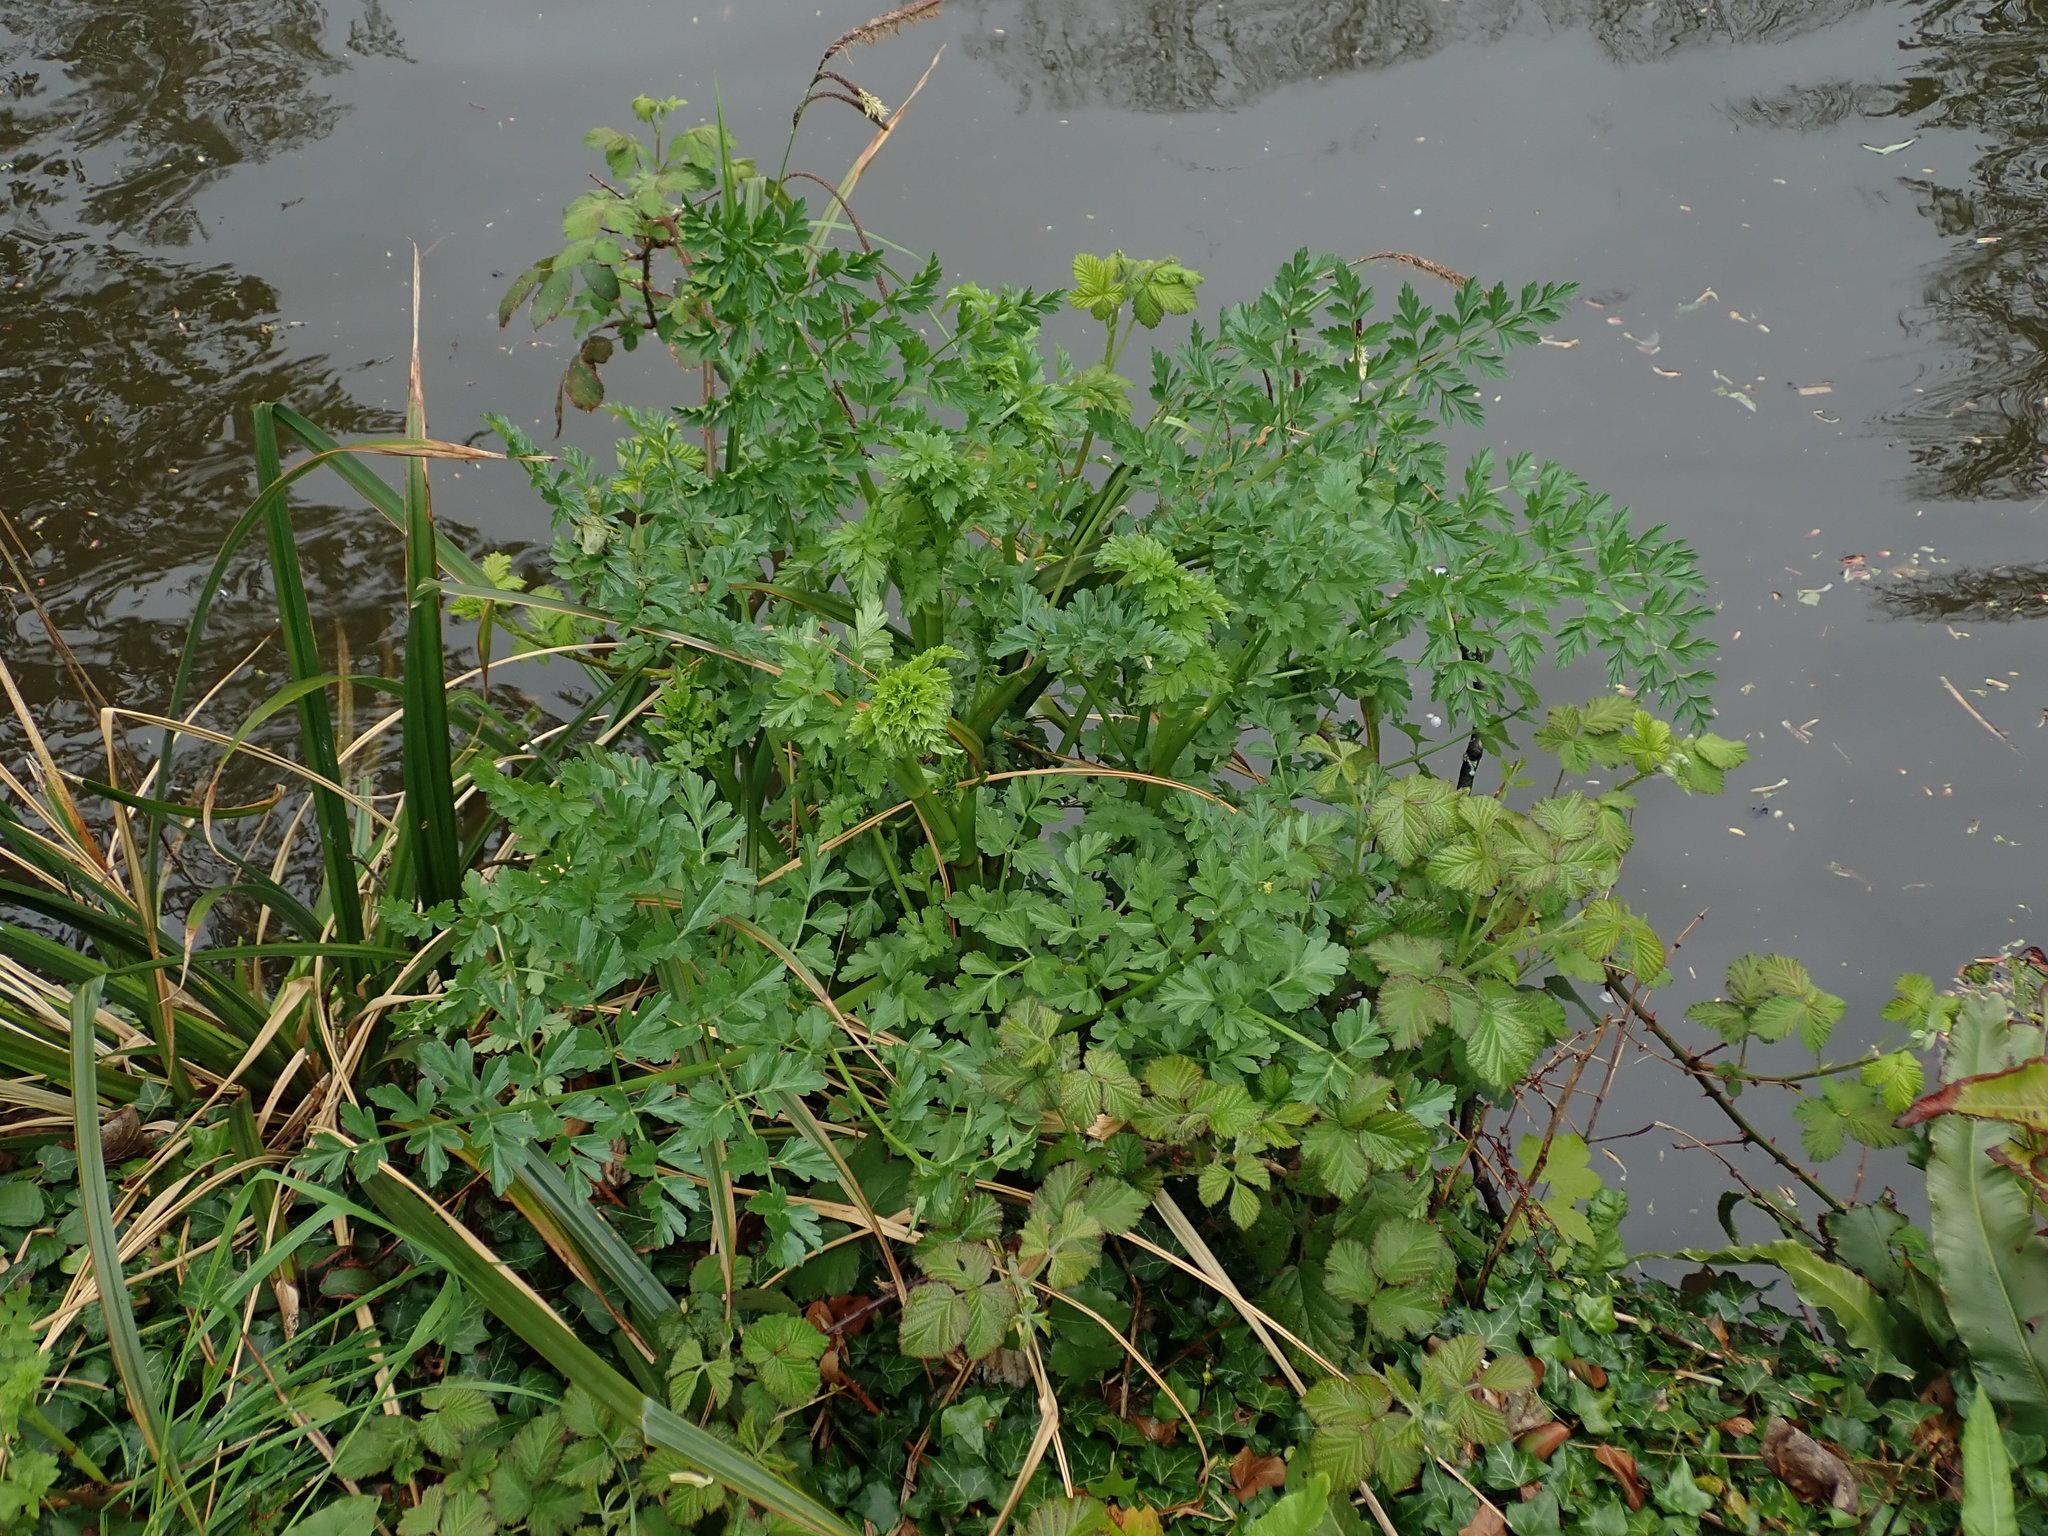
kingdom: Plantae
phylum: Tracheophyta
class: Magnoliopsida
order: Apiales
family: Apiaceae
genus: Oenanthe
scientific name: Oenanthe crocata
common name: Hemlock water-dropwort
